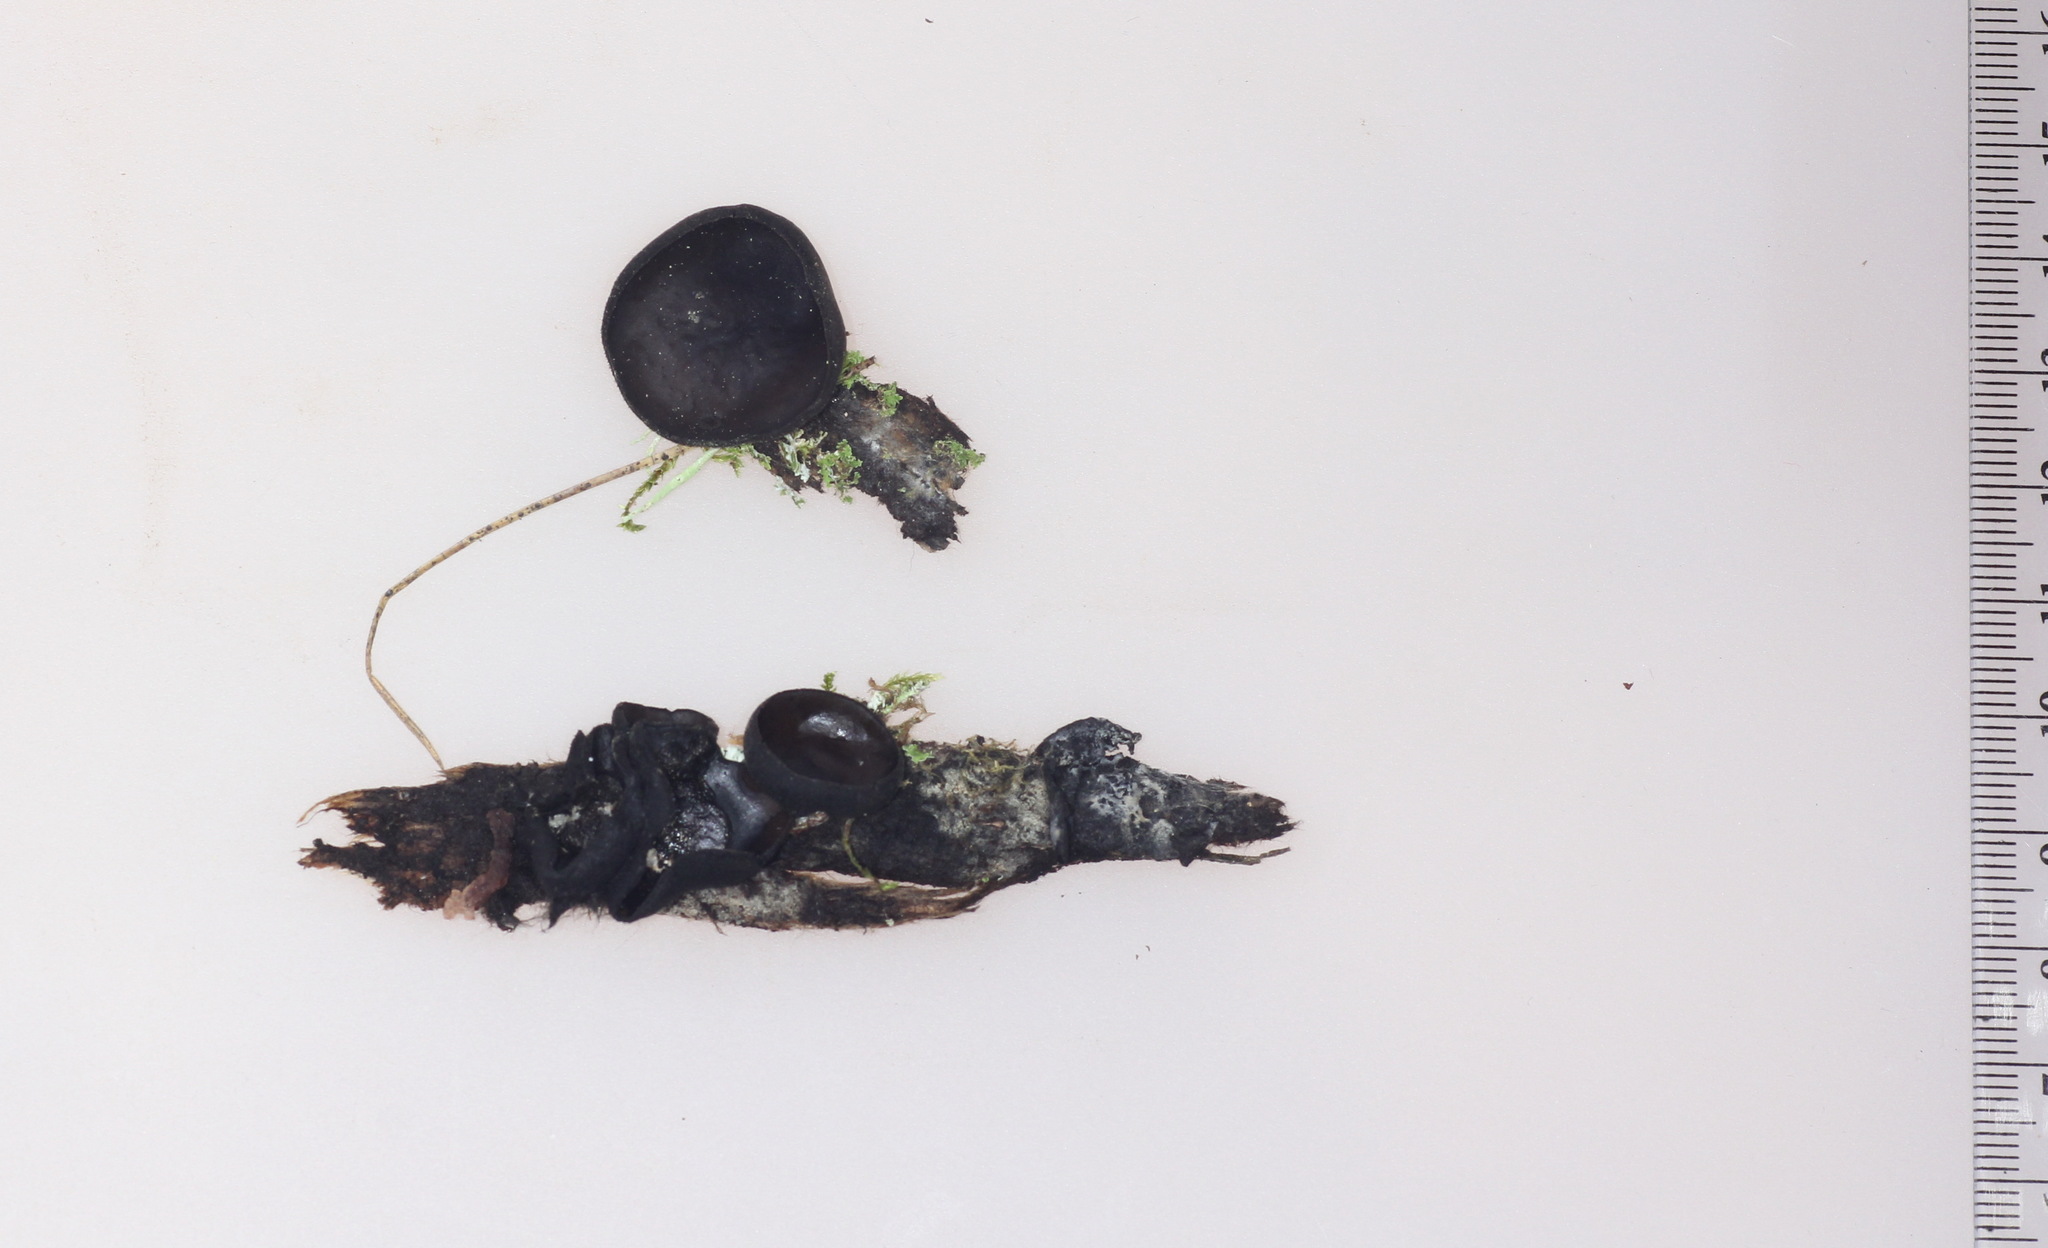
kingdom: Fungi
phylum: Ascomycota
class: Pezizomycetes
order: Pezizales
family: Sarcosomataceae
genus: Pseudoplectania
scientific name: Pseudoplectania nigrella
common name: Ebony cup
